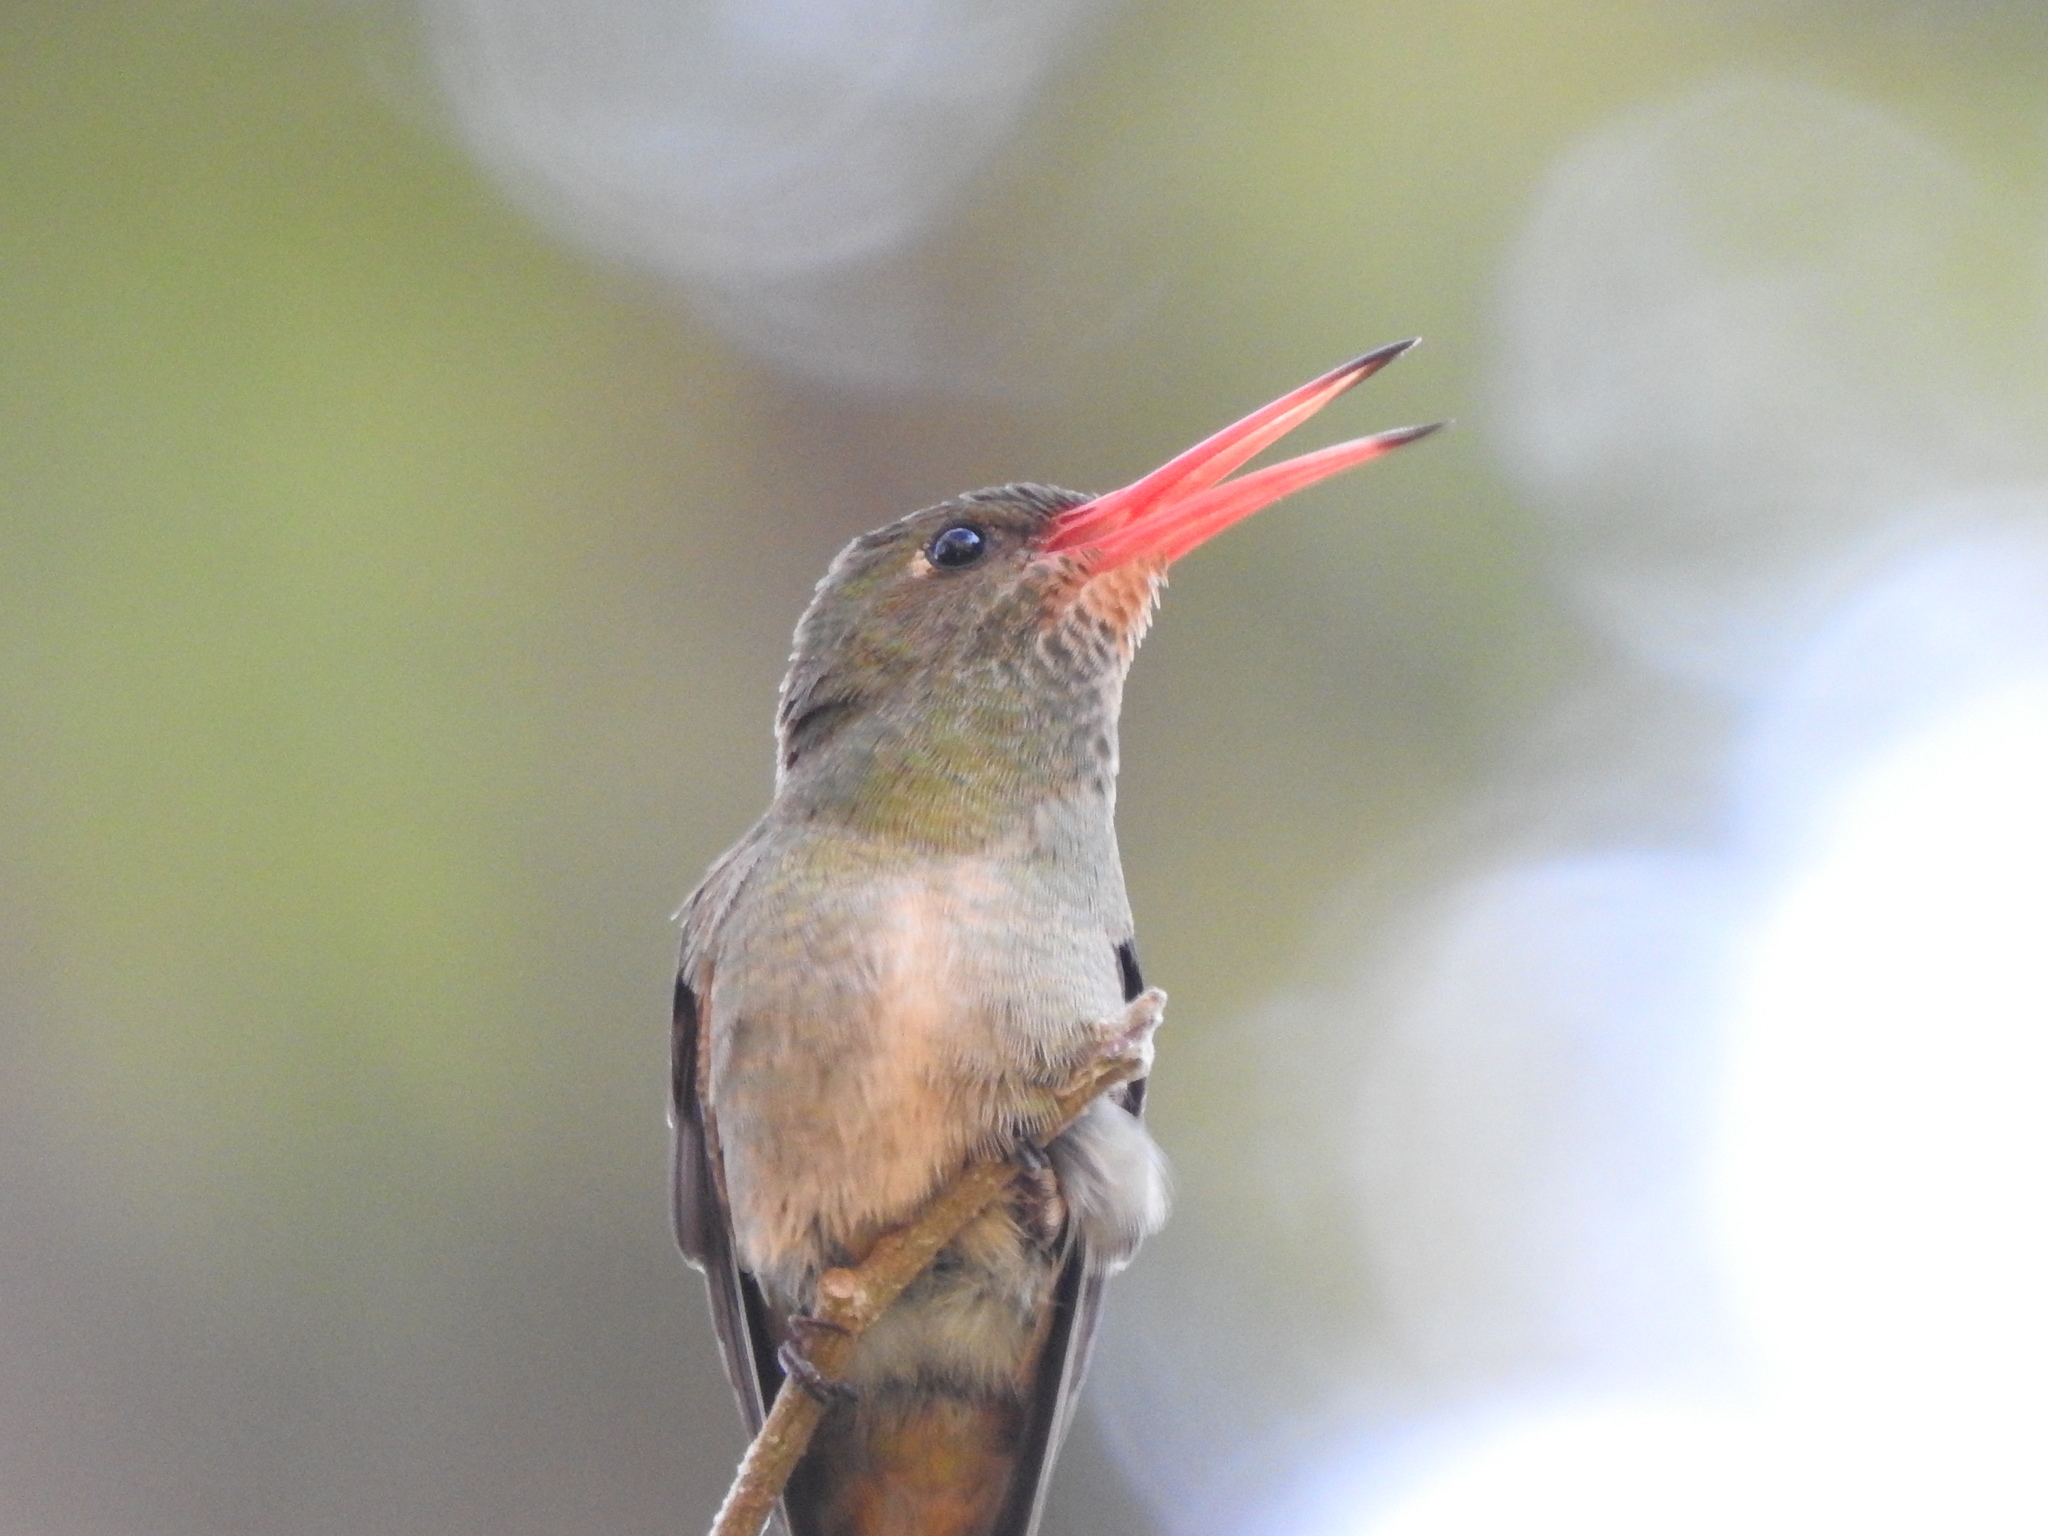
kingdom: Animalia
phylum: Chordata
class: Aves
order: Apodiformes
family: Trochilidae
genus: Hylocharis
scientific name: Hylocharis chrysura
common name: Gilded sapphire
